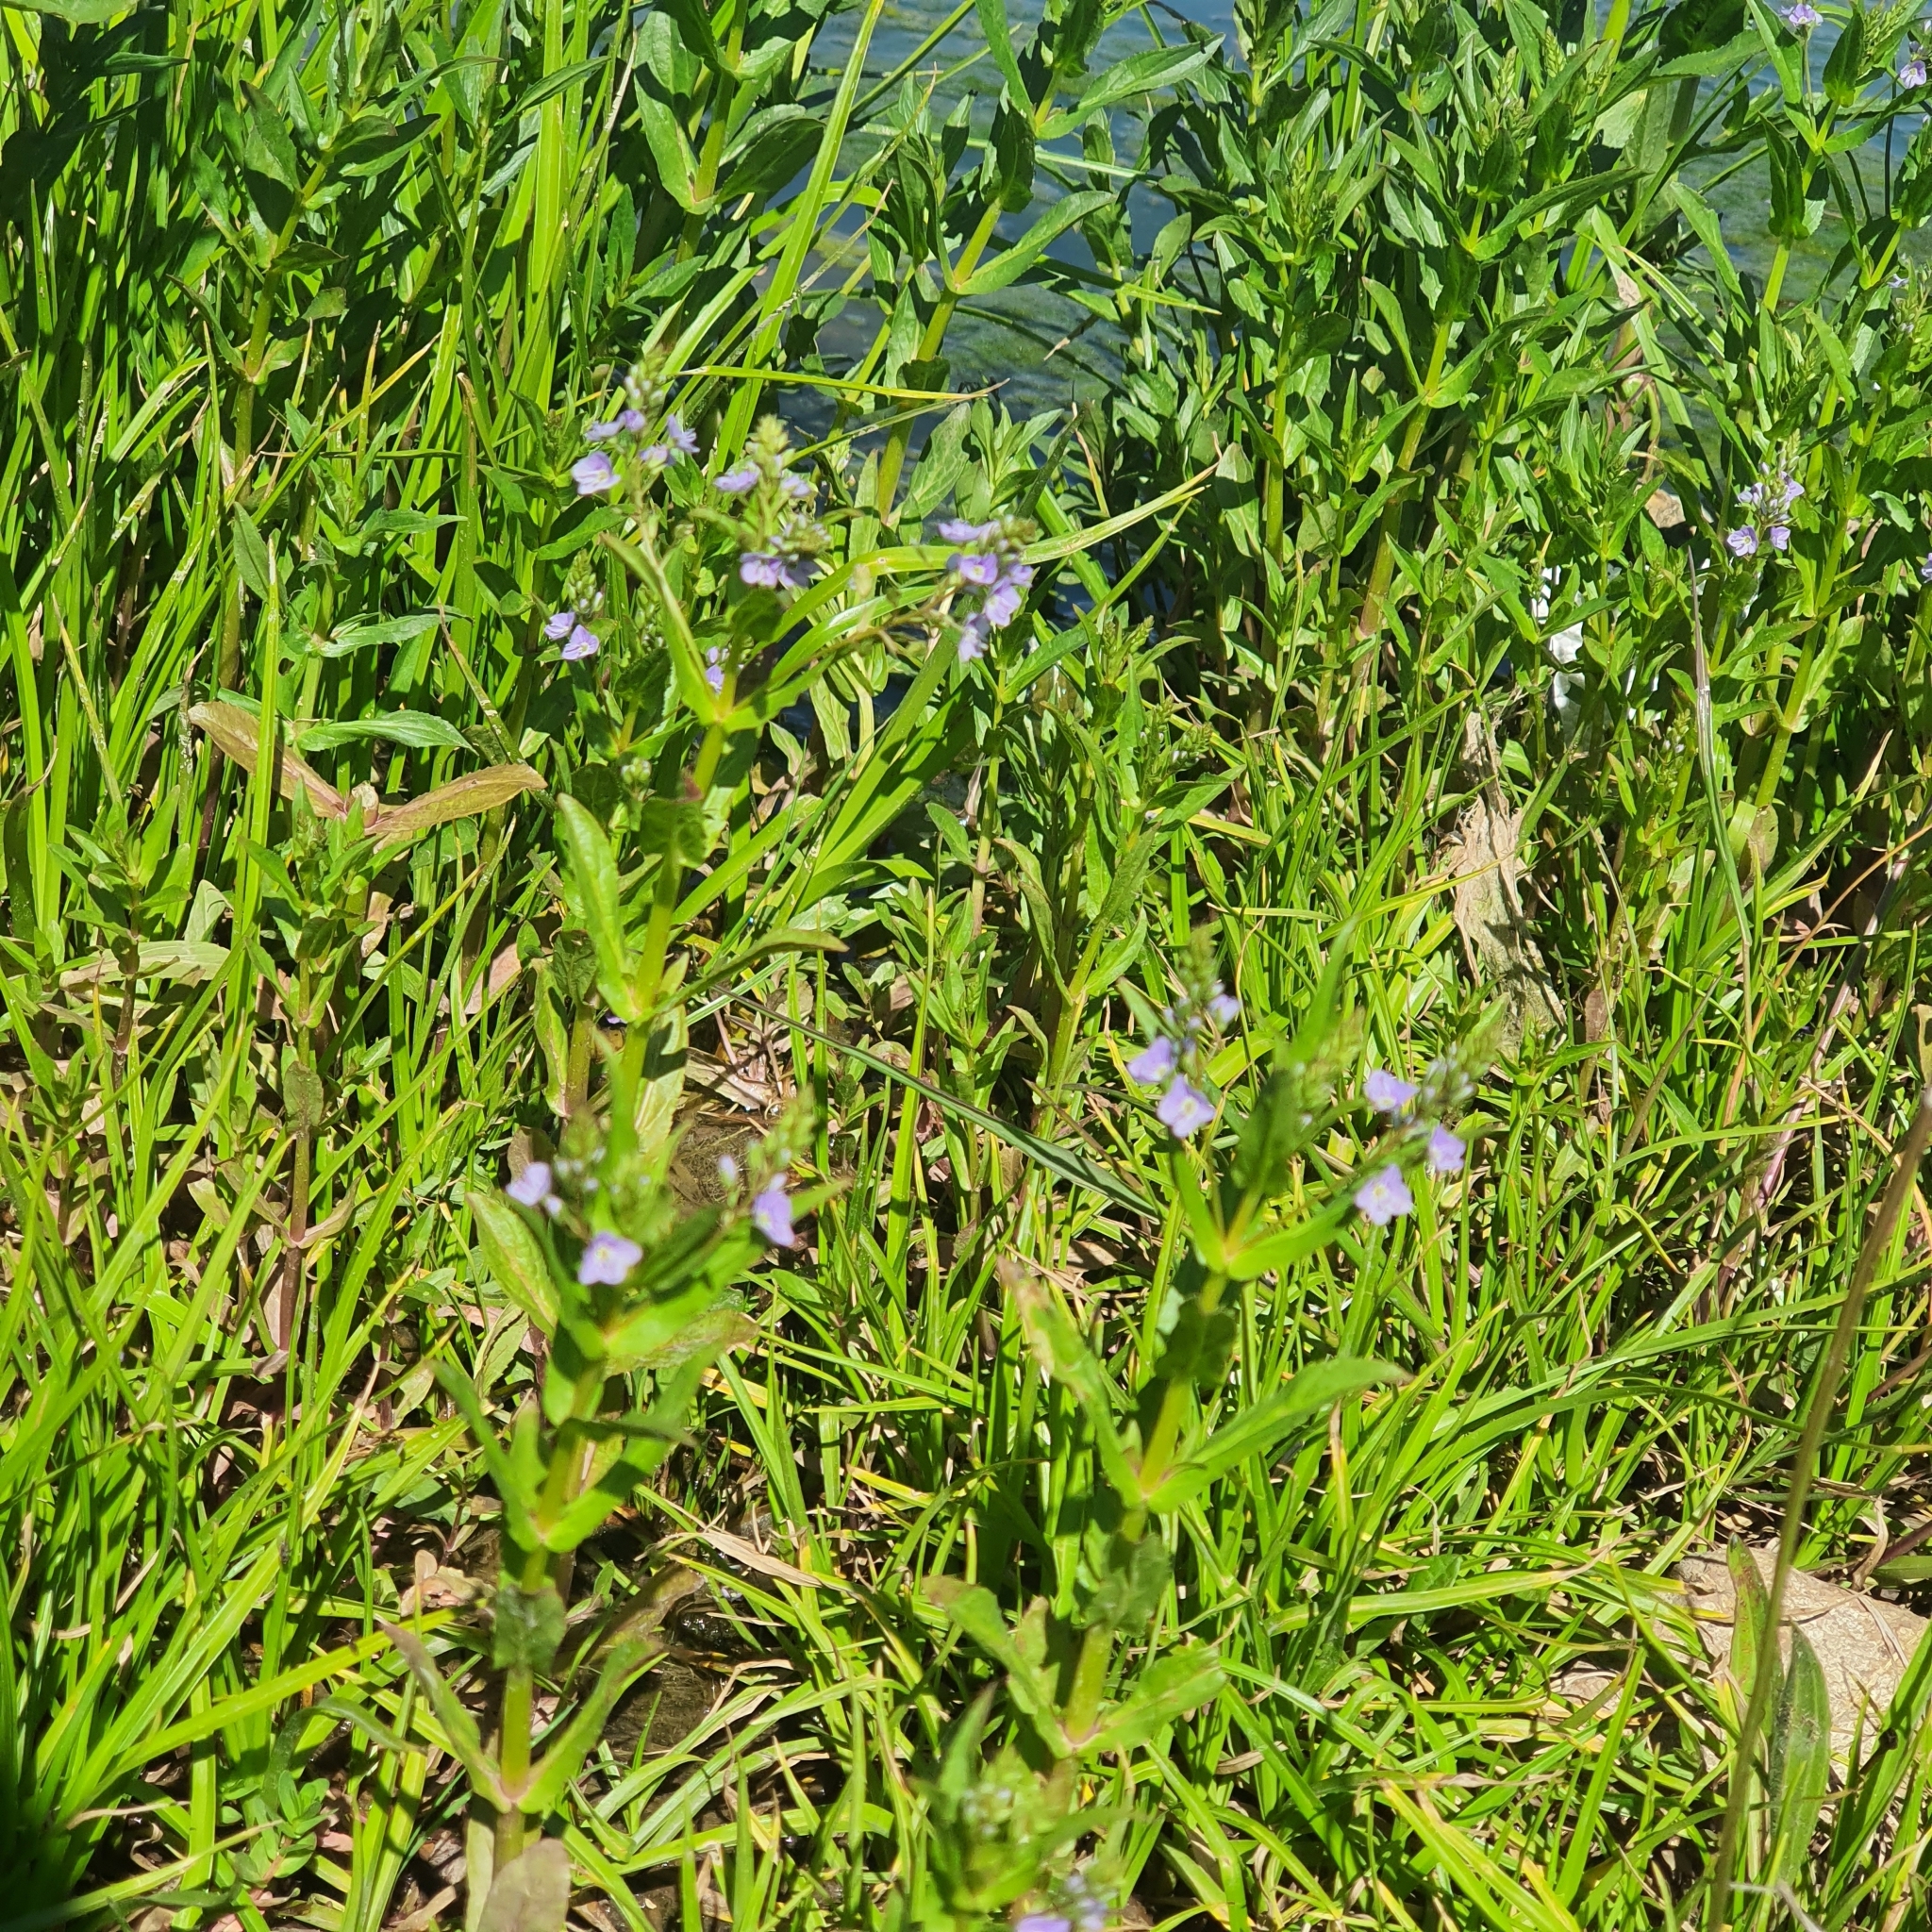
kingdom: Plantae
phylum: Tracheophyta
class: Magnoliopsida
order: Lamiales
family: Plantaginaceae
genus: Veronica
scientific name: Veronica anagallis-aquatica
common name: Water speedwell
